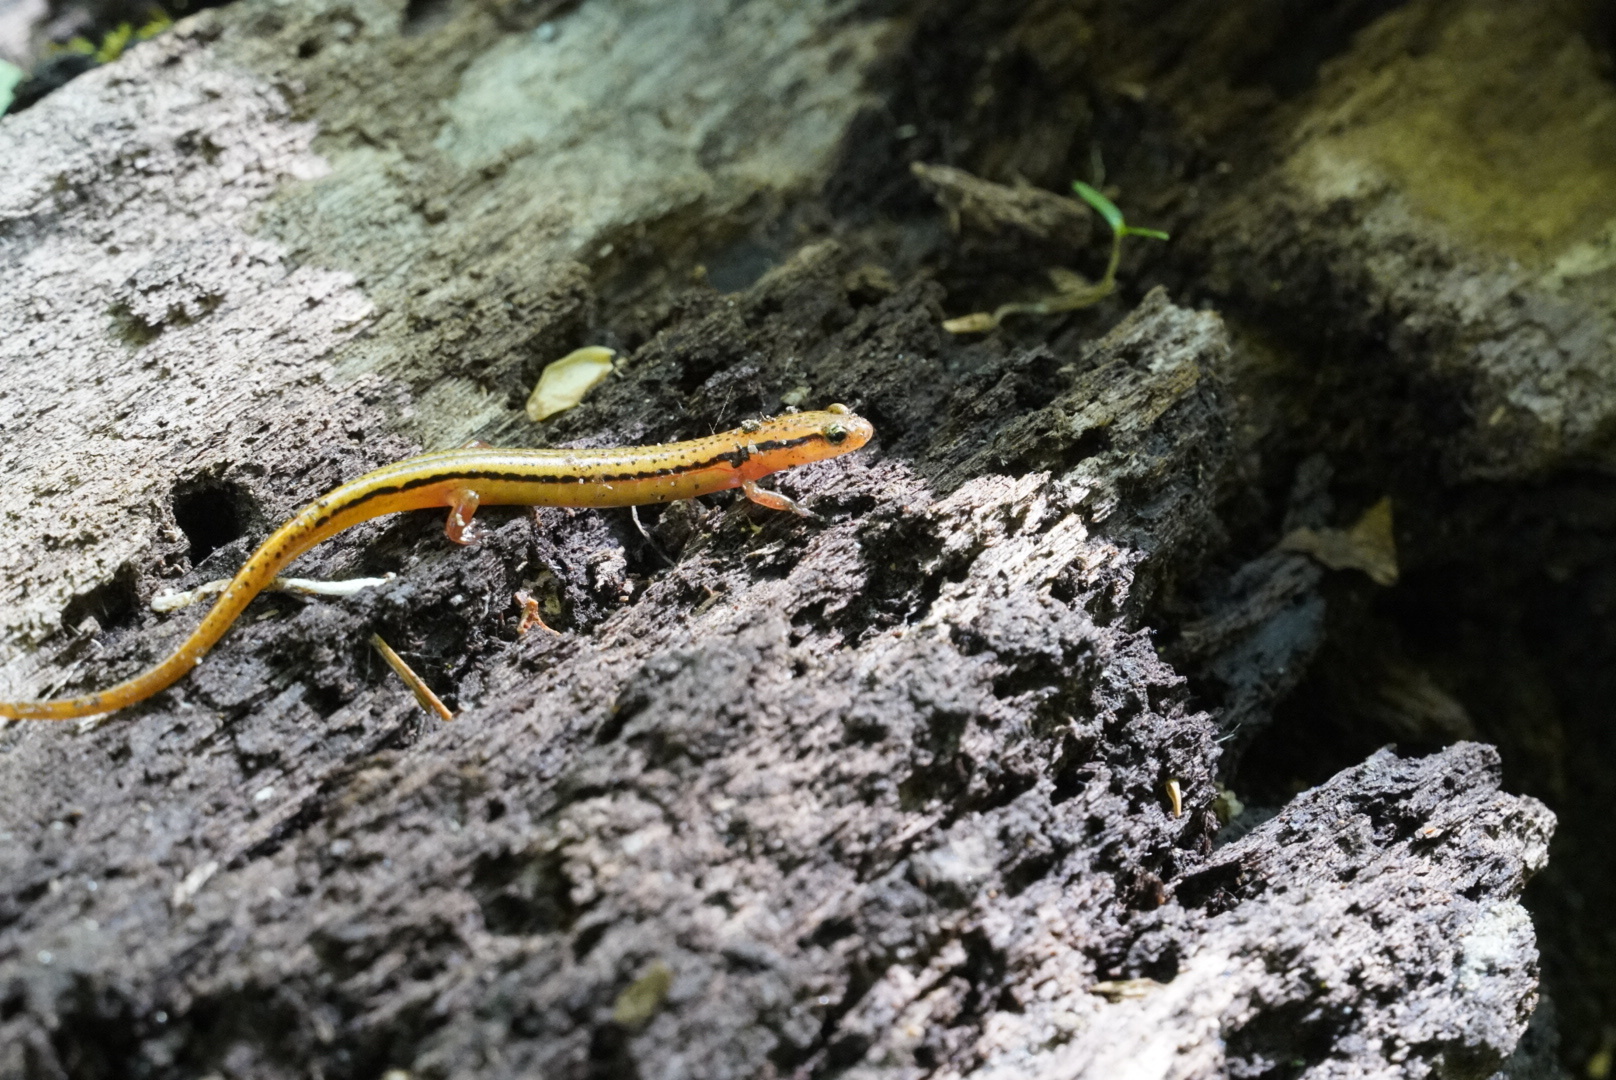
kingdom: Animalia
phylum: Chordata
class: Amphibia
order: Caudata
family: Plethodontidae
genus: Eurycea
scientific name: Eurycea wilderae
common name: Blue ridge two-lined salamander
